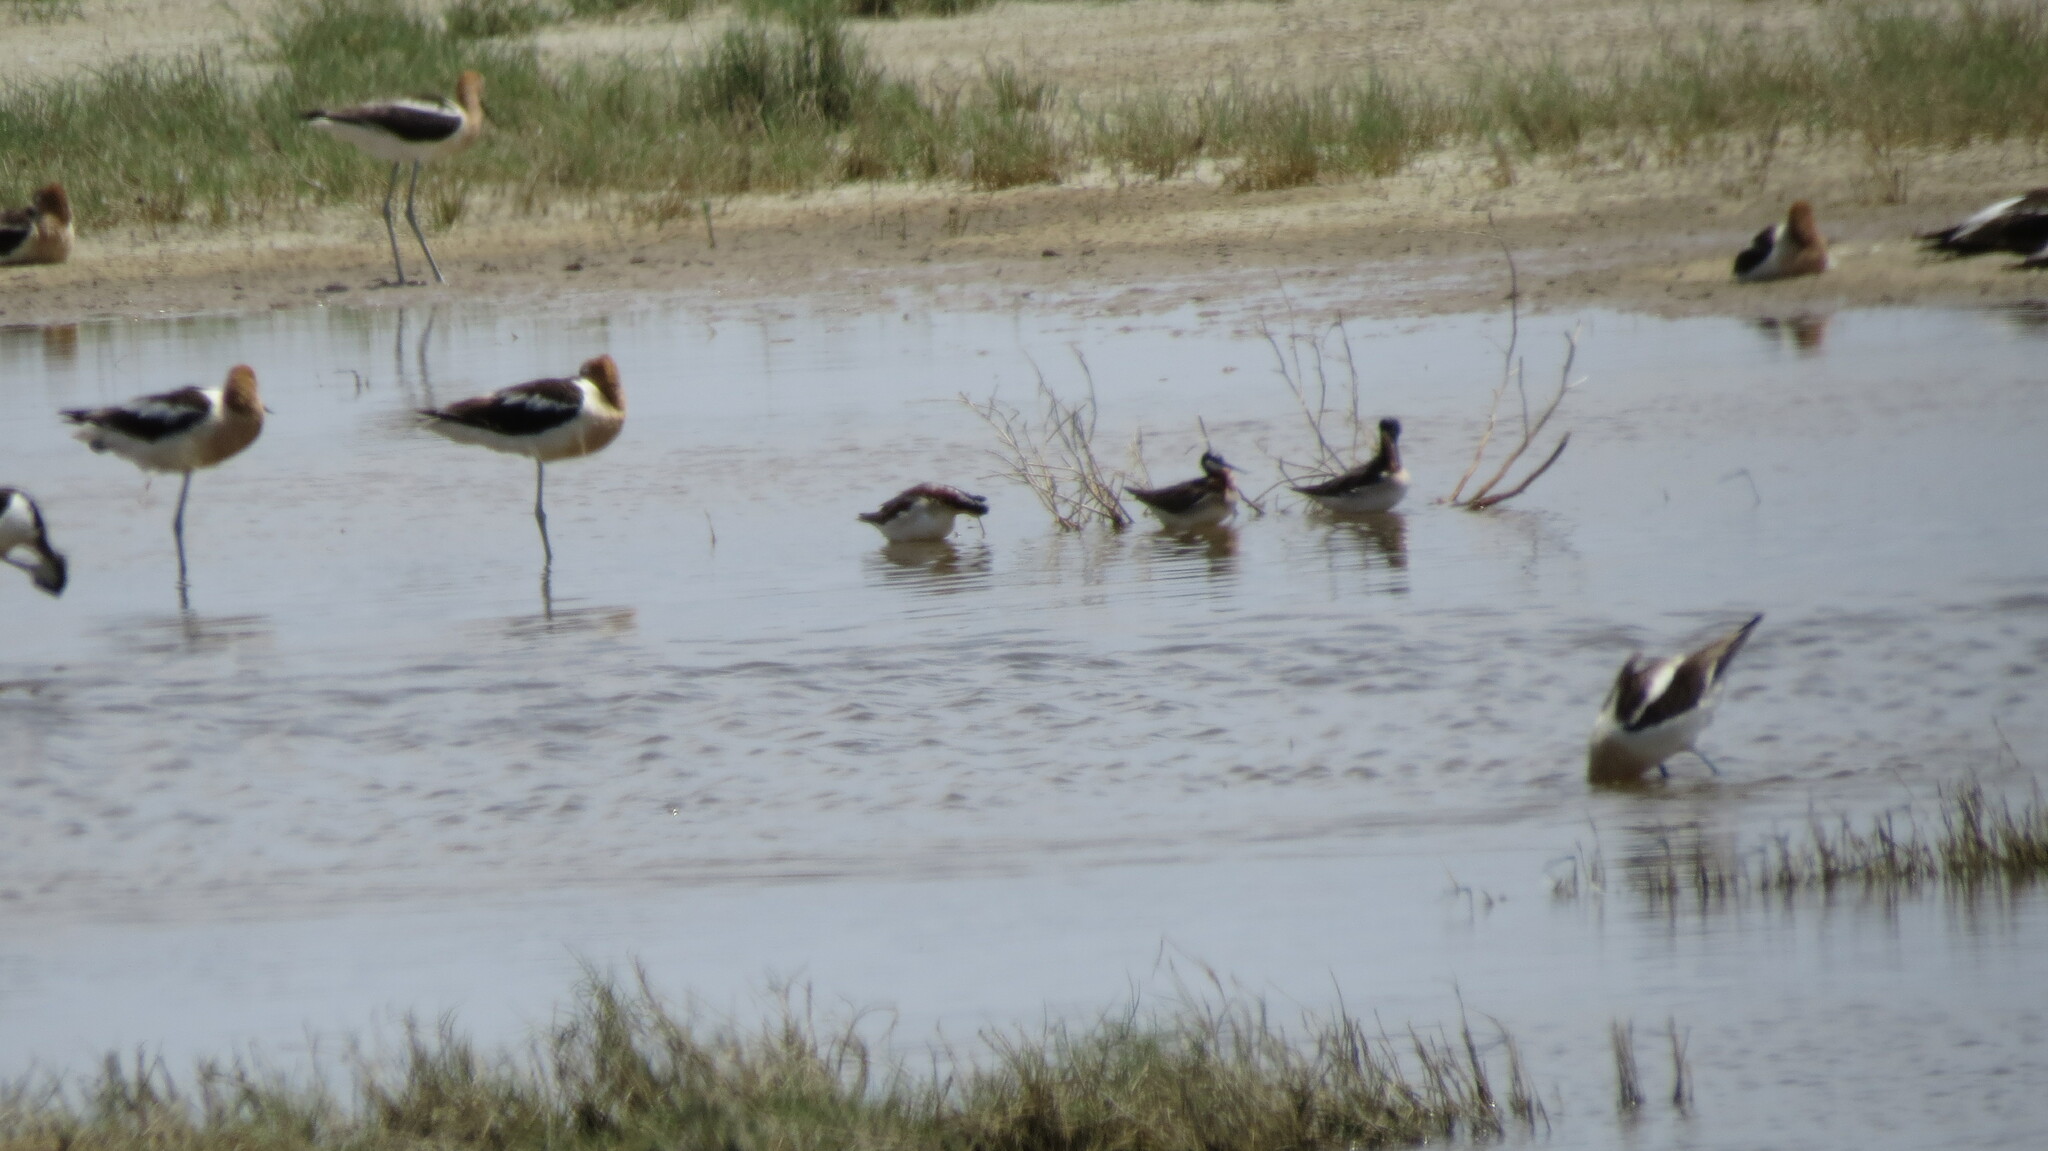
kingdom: Animalia
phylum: Chordata
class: Aves
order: Charadriiformes
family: Scolopacidae
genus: Phalaropus
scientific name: Phalaropus tricolor
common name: Wilson's phalarope
